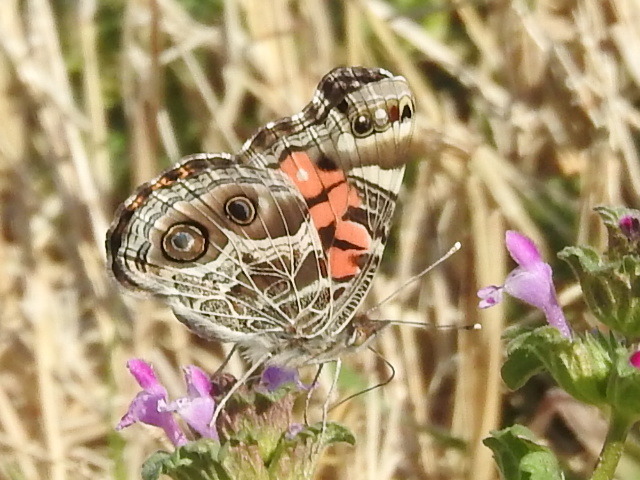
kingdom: Animalia
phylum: Arthropoda
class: Insecta
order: Lepidoptera
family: Nymphalidae
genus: Vanessa
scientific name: Vanessa virginiensis
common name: American lady
